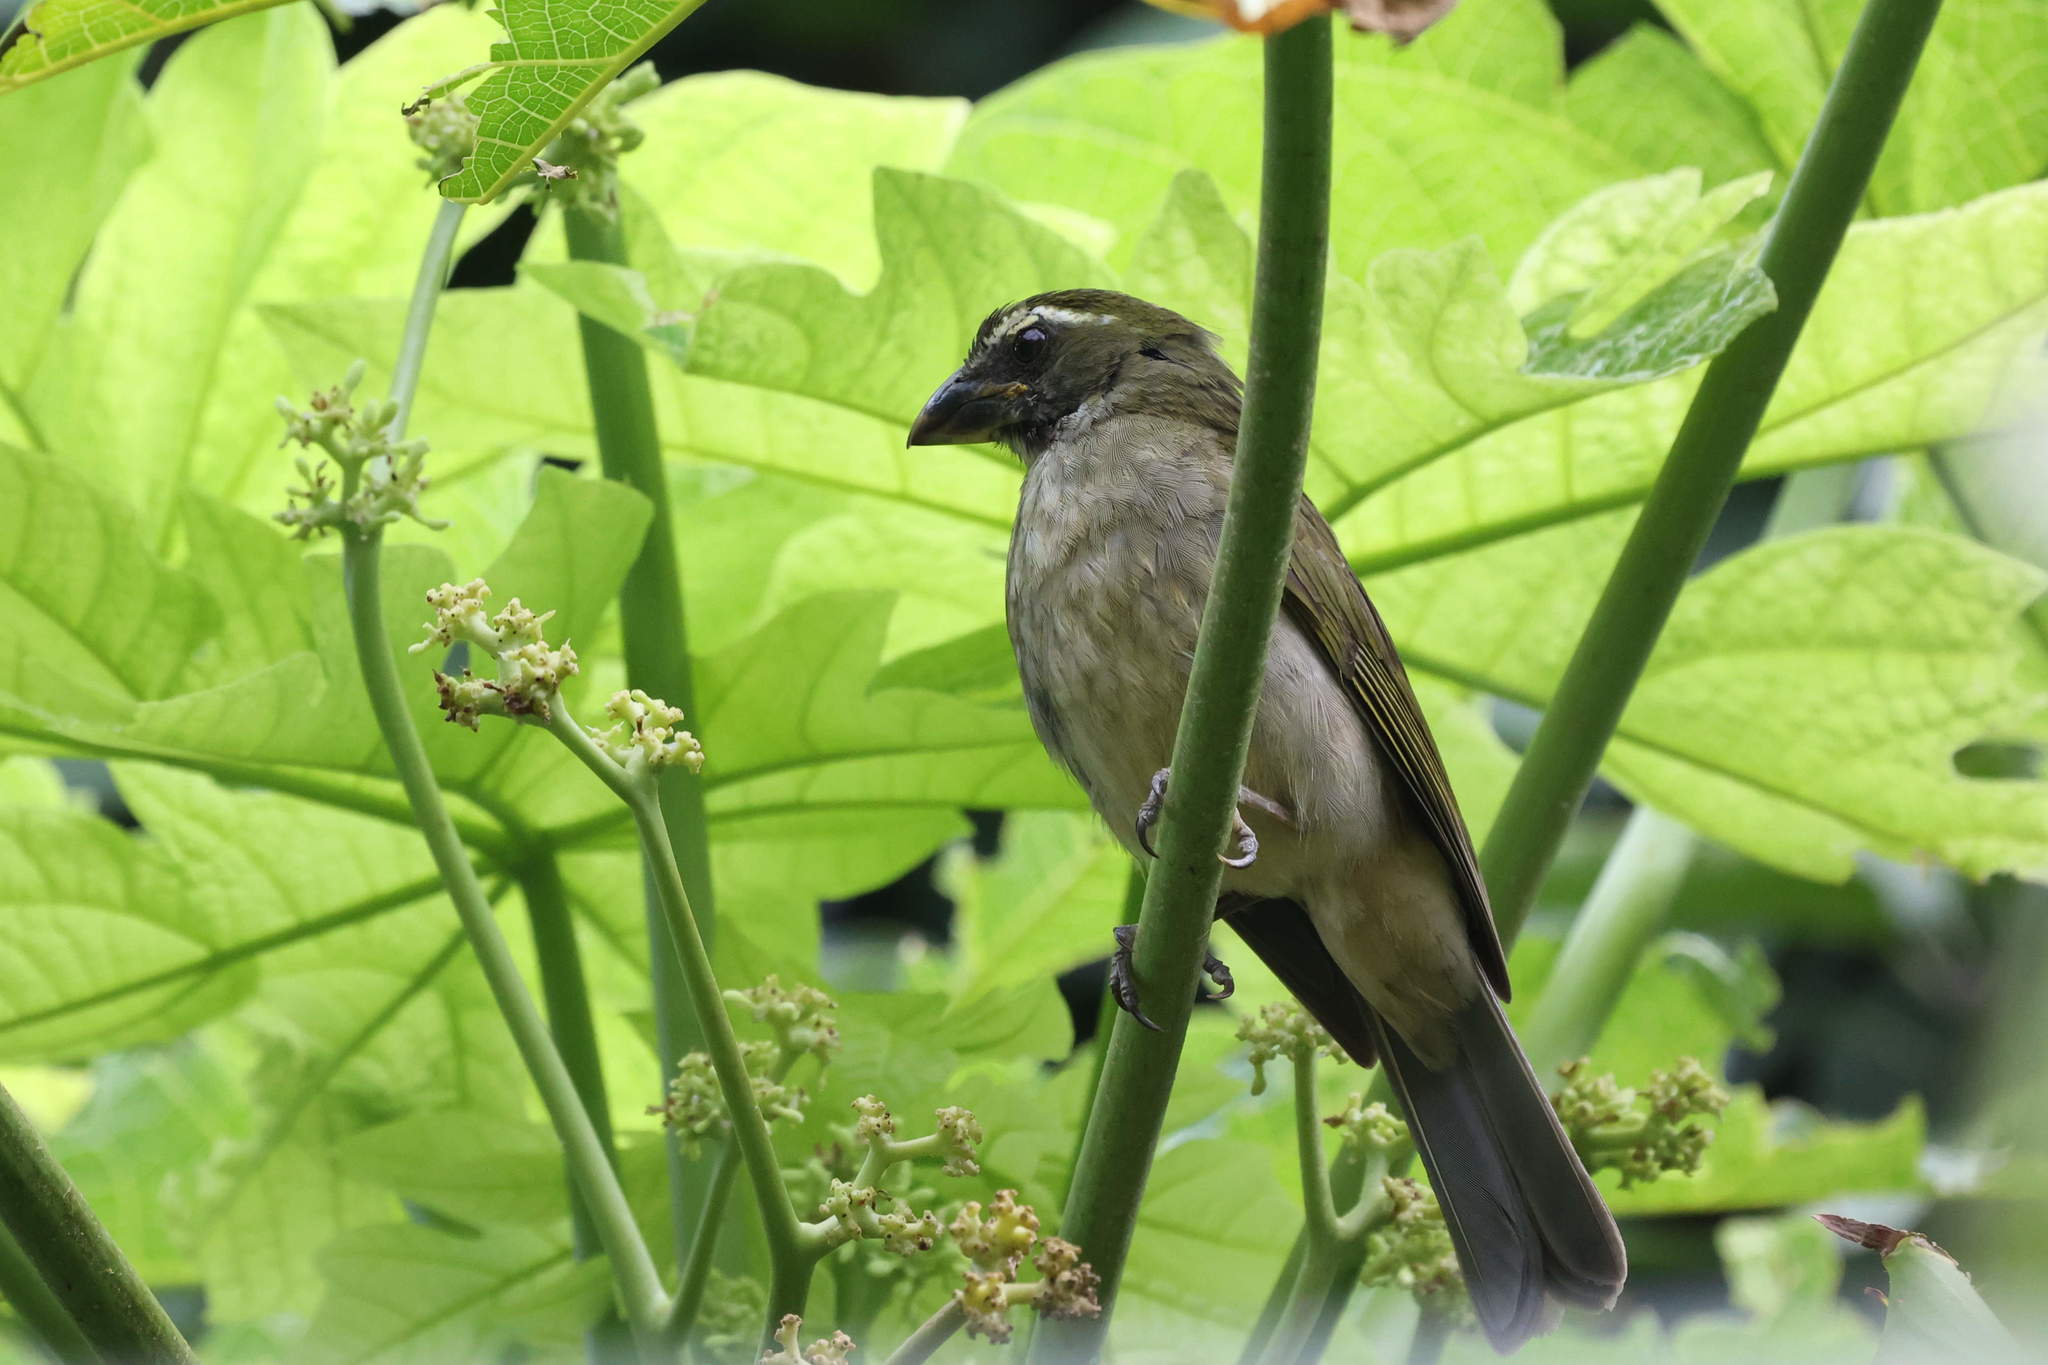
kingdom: Animalia
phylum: Chordata
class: Aves
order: Passeriformes
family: Thraupidae
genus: Saltator
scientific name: Saltator albicollis
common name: Lesser antillean saltator
